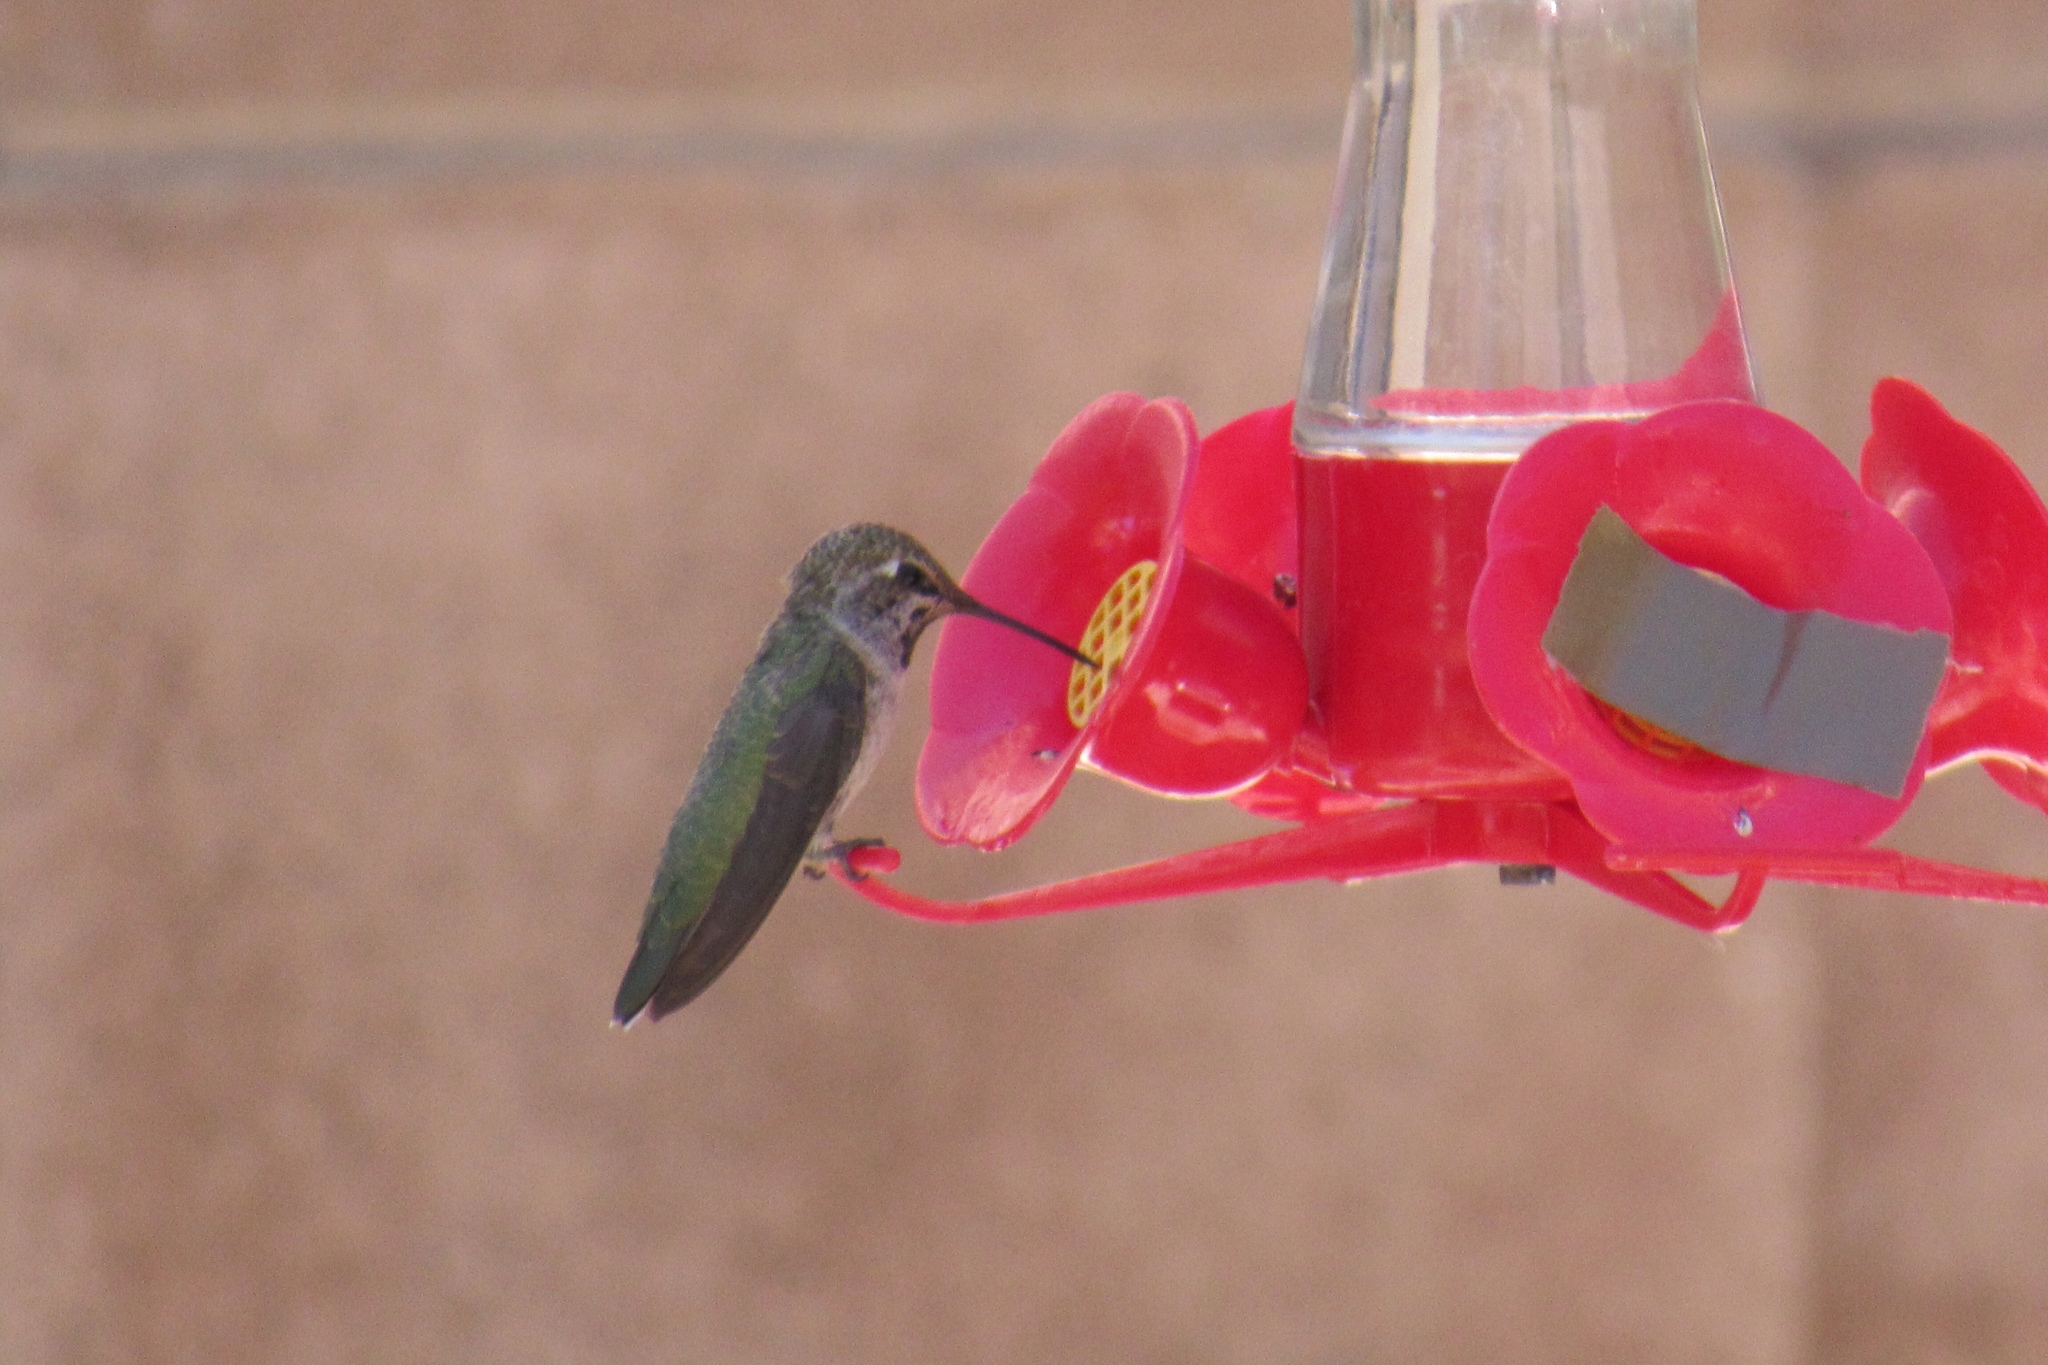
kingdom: Animalia
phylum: Chordata
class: Aves
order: Apodiformes
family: Trochilidae
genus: Calypte
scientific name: Calypte anna
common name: Anna's hummingbird
